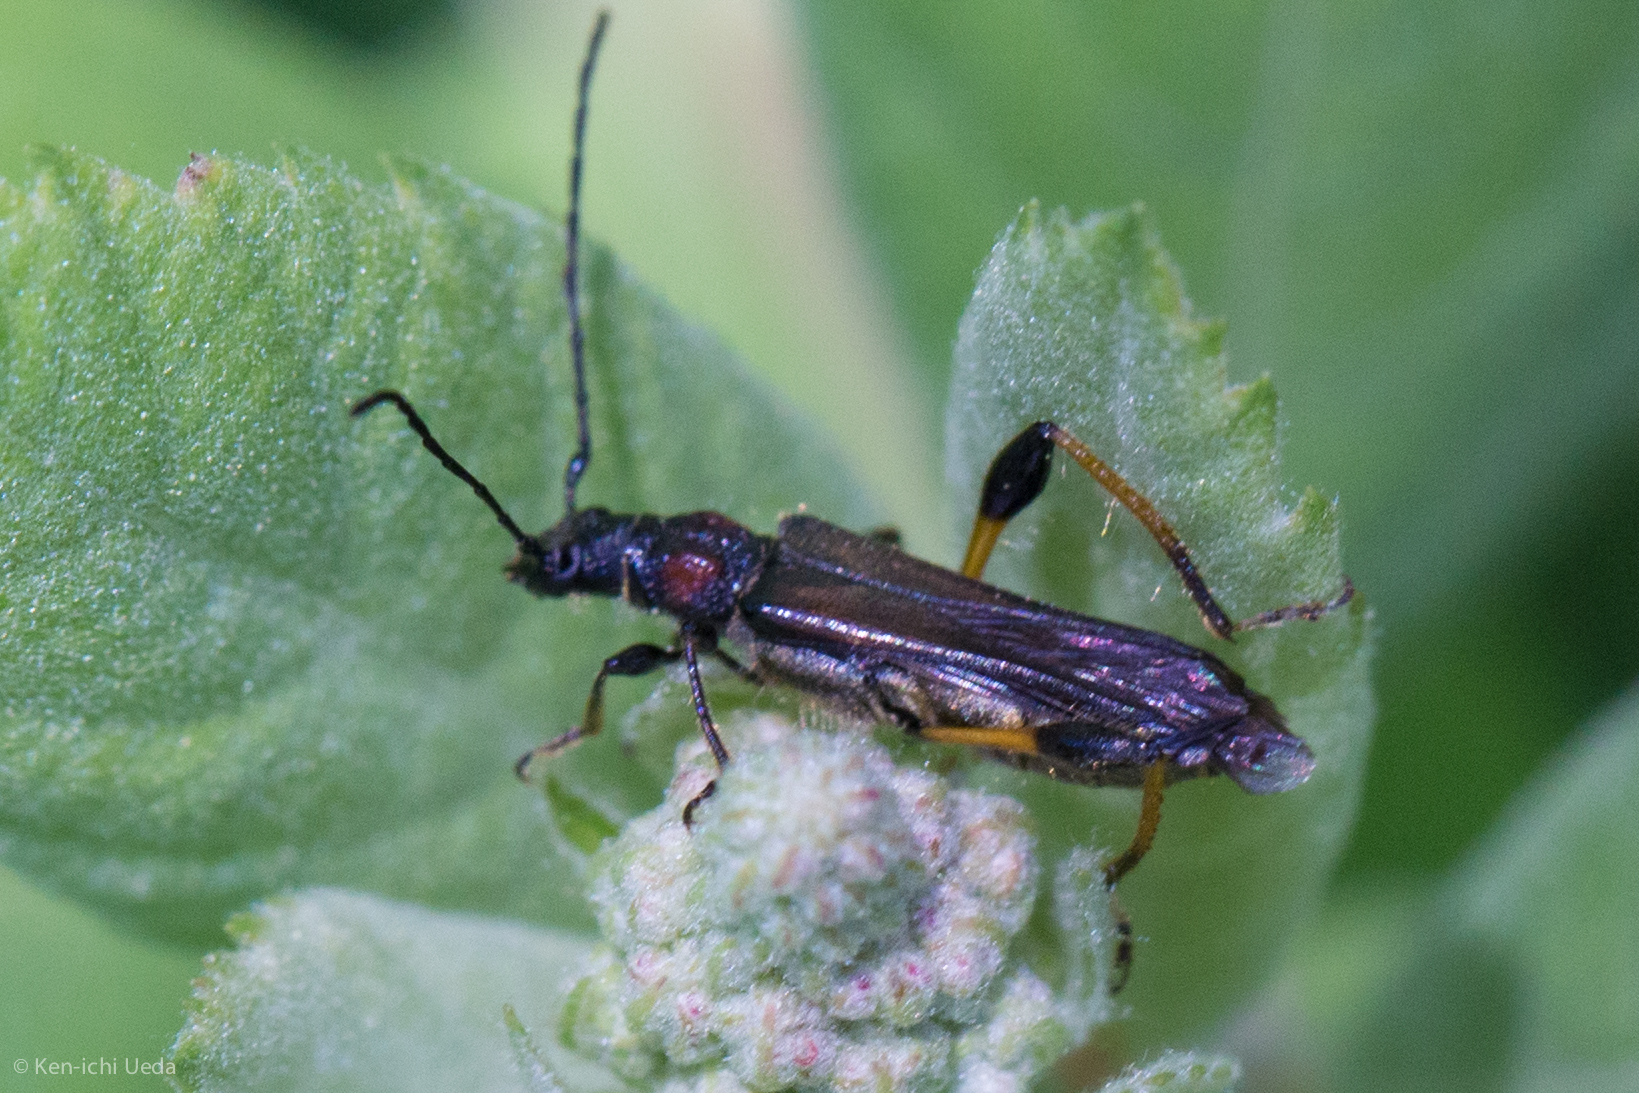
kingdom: Animalia
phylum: Arthropoda
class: Insecta
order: Coleoptera
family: Cerambycidae
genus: Callimoxys
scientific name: Callimoxys fuscipennis
